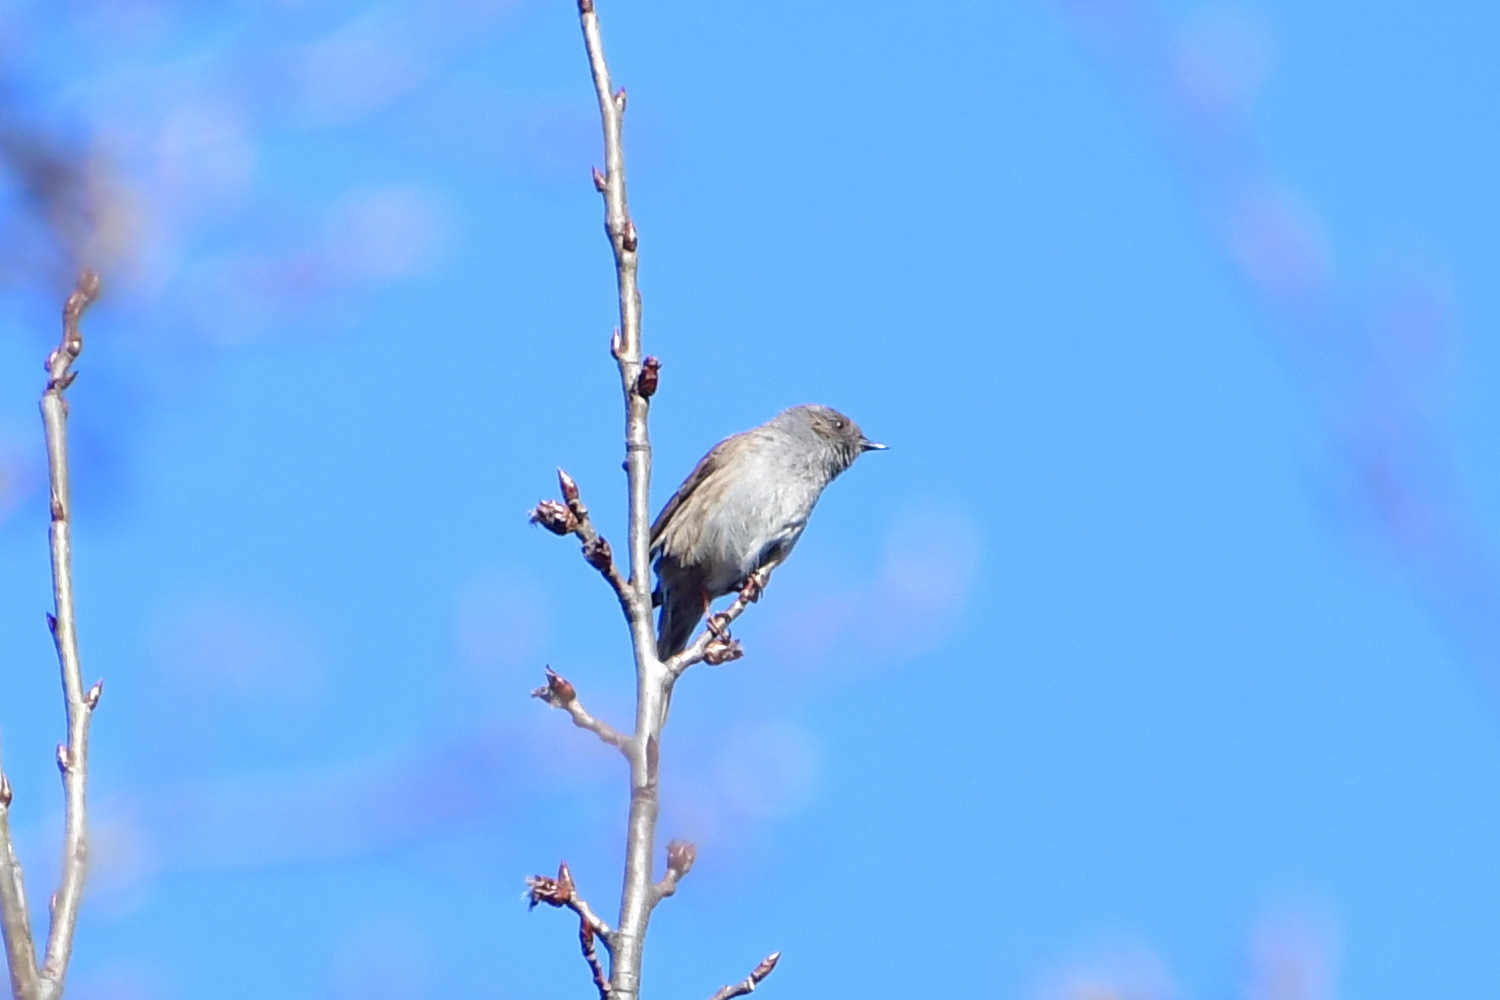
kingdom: Animalia
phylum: Chordata
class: Aves
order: Passeriformes
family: Prunellidae
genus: Prunella
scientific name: Prunella modularis
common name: Dunnock
